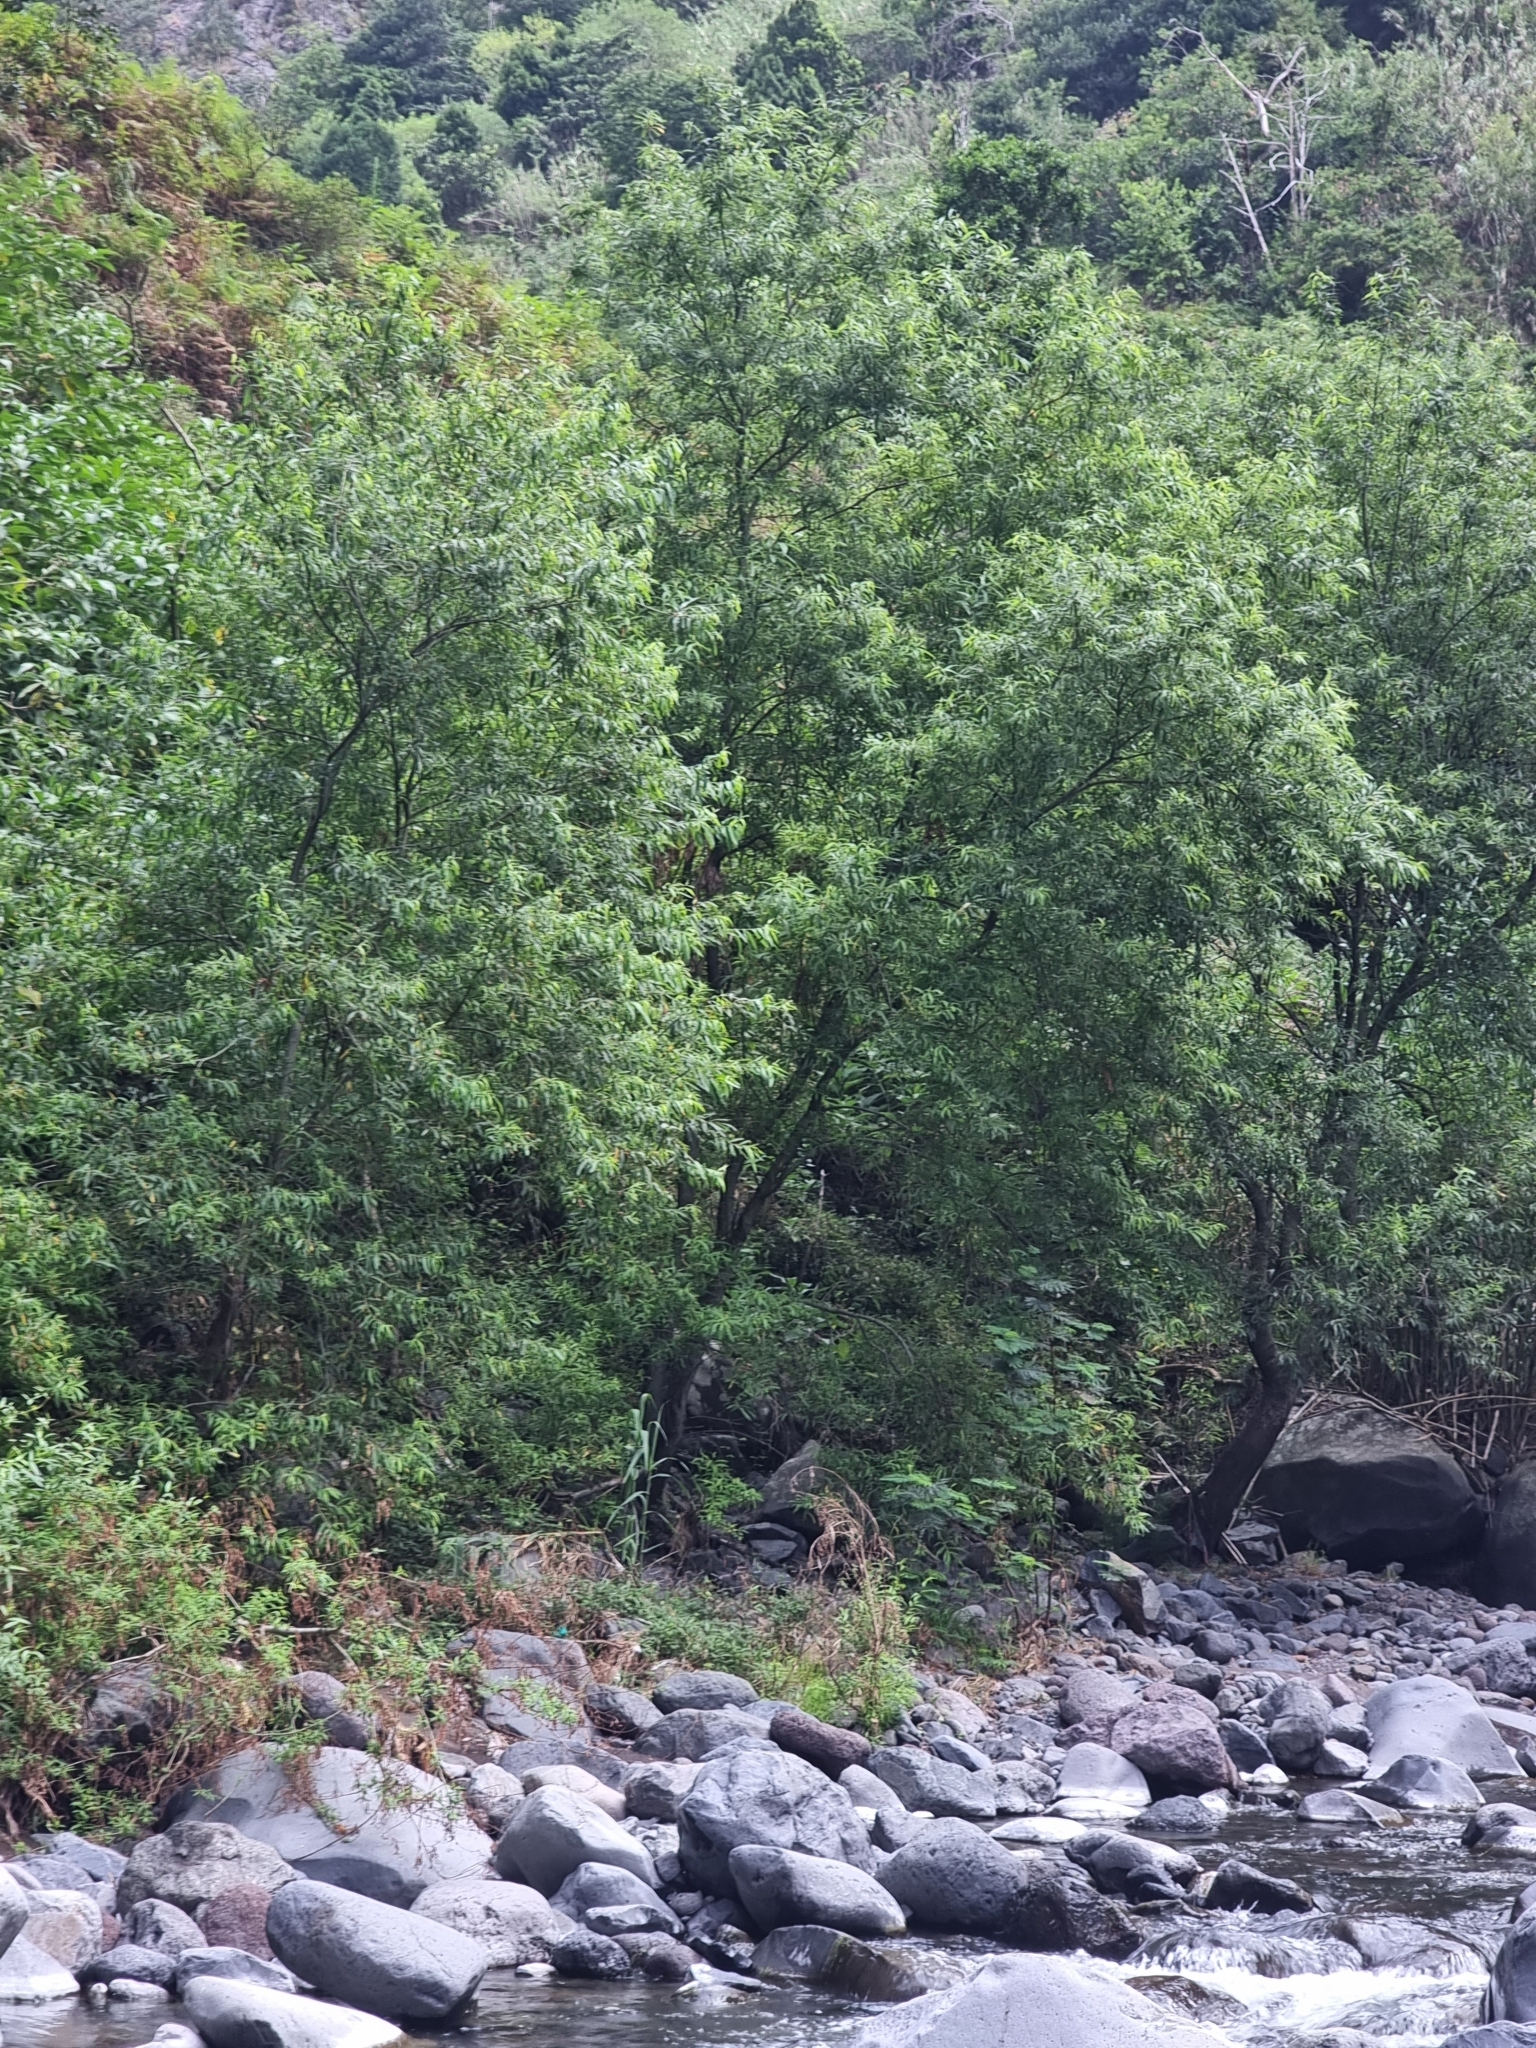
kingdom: Plantae
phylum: Tracheophyta
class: Magnoliopsida
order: Malpighiales
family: Salicaceae
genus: Salix
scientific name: Salix canariensis
